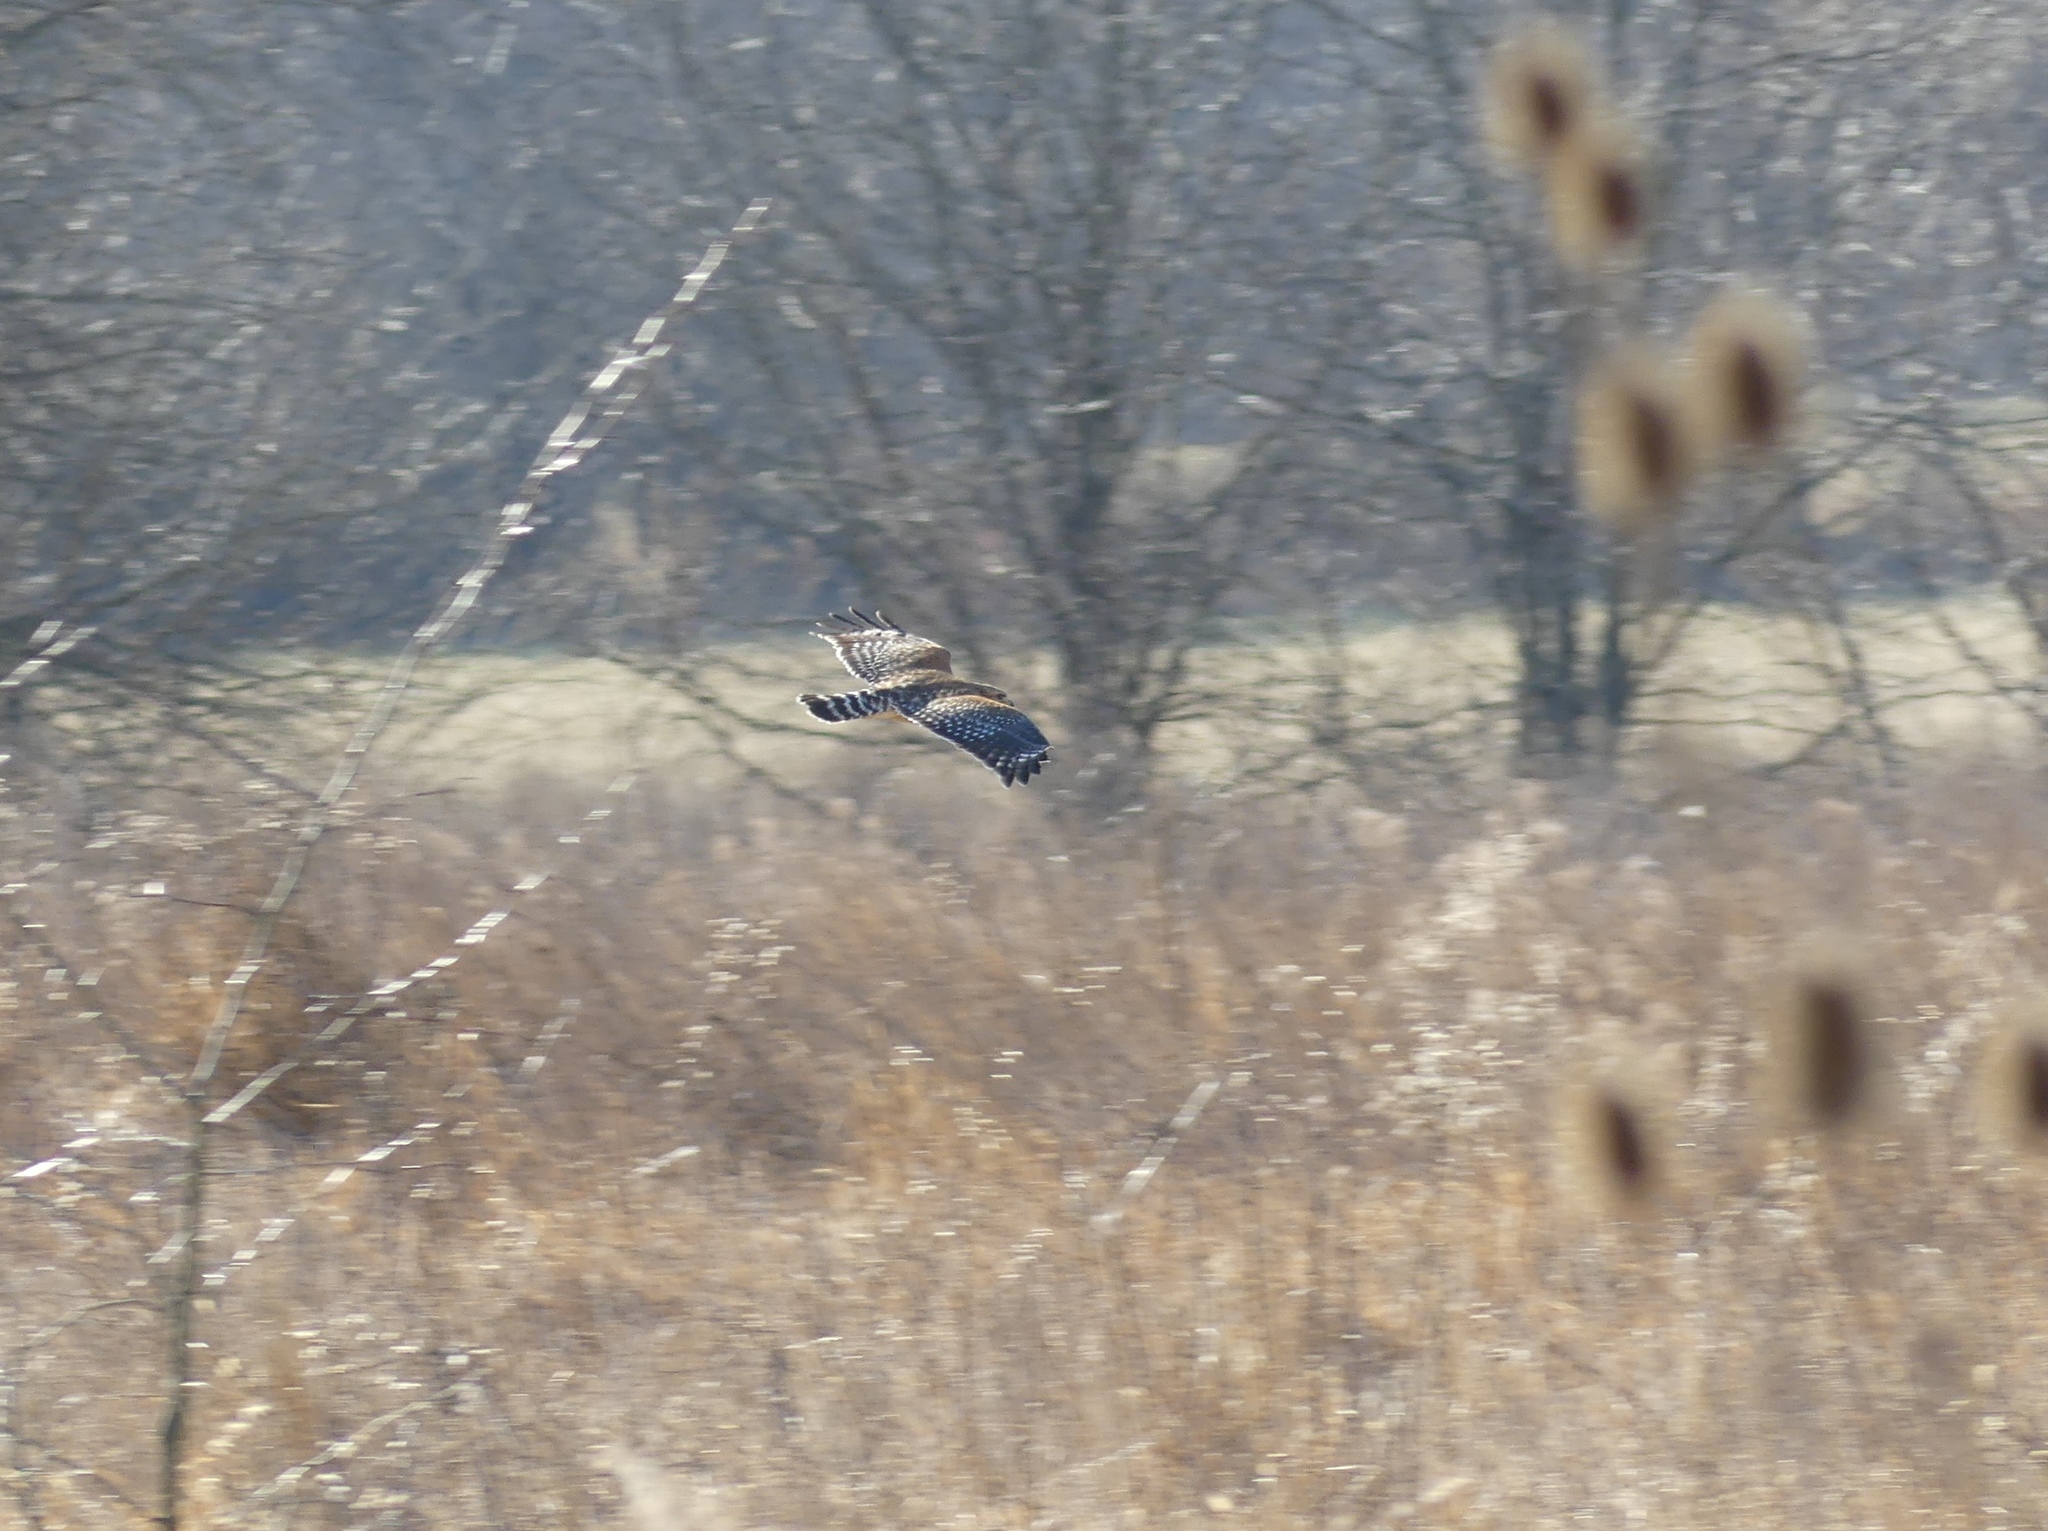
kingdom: Animalia
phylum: Chordata
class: Aves
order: Accipitriformes
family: Accipitridae
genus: Buteo
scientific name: Buteo lineatus
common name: Red-shouldered hawk
